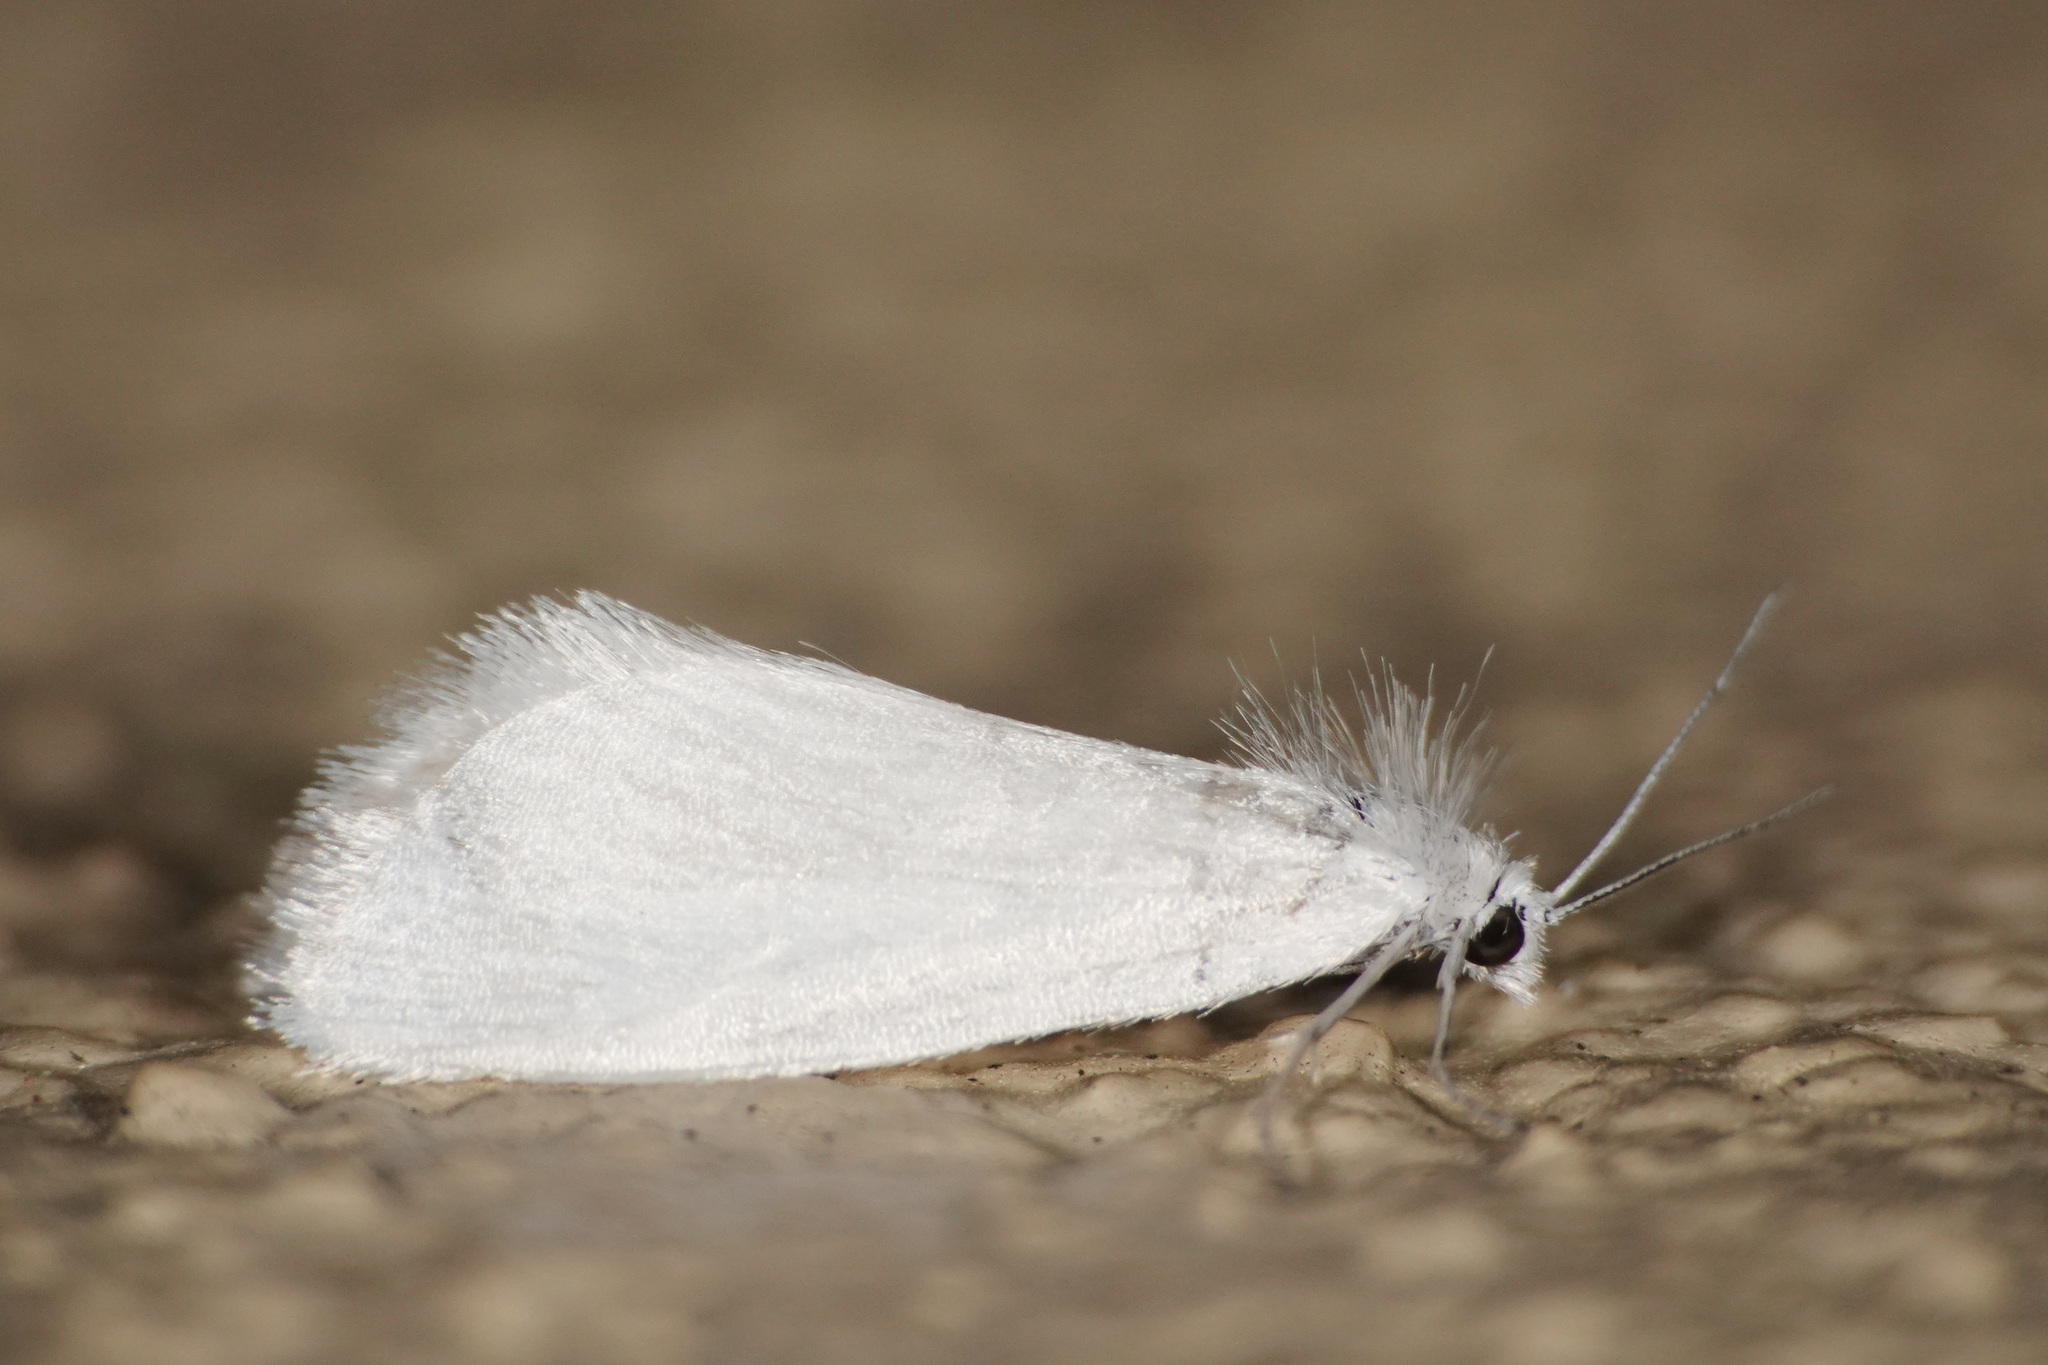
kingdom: Animalia
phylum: Arthropoda
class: Insecta
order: Lepidoptera
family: Crambidae
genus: Tipanaea
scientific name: Tipanaea patulella
